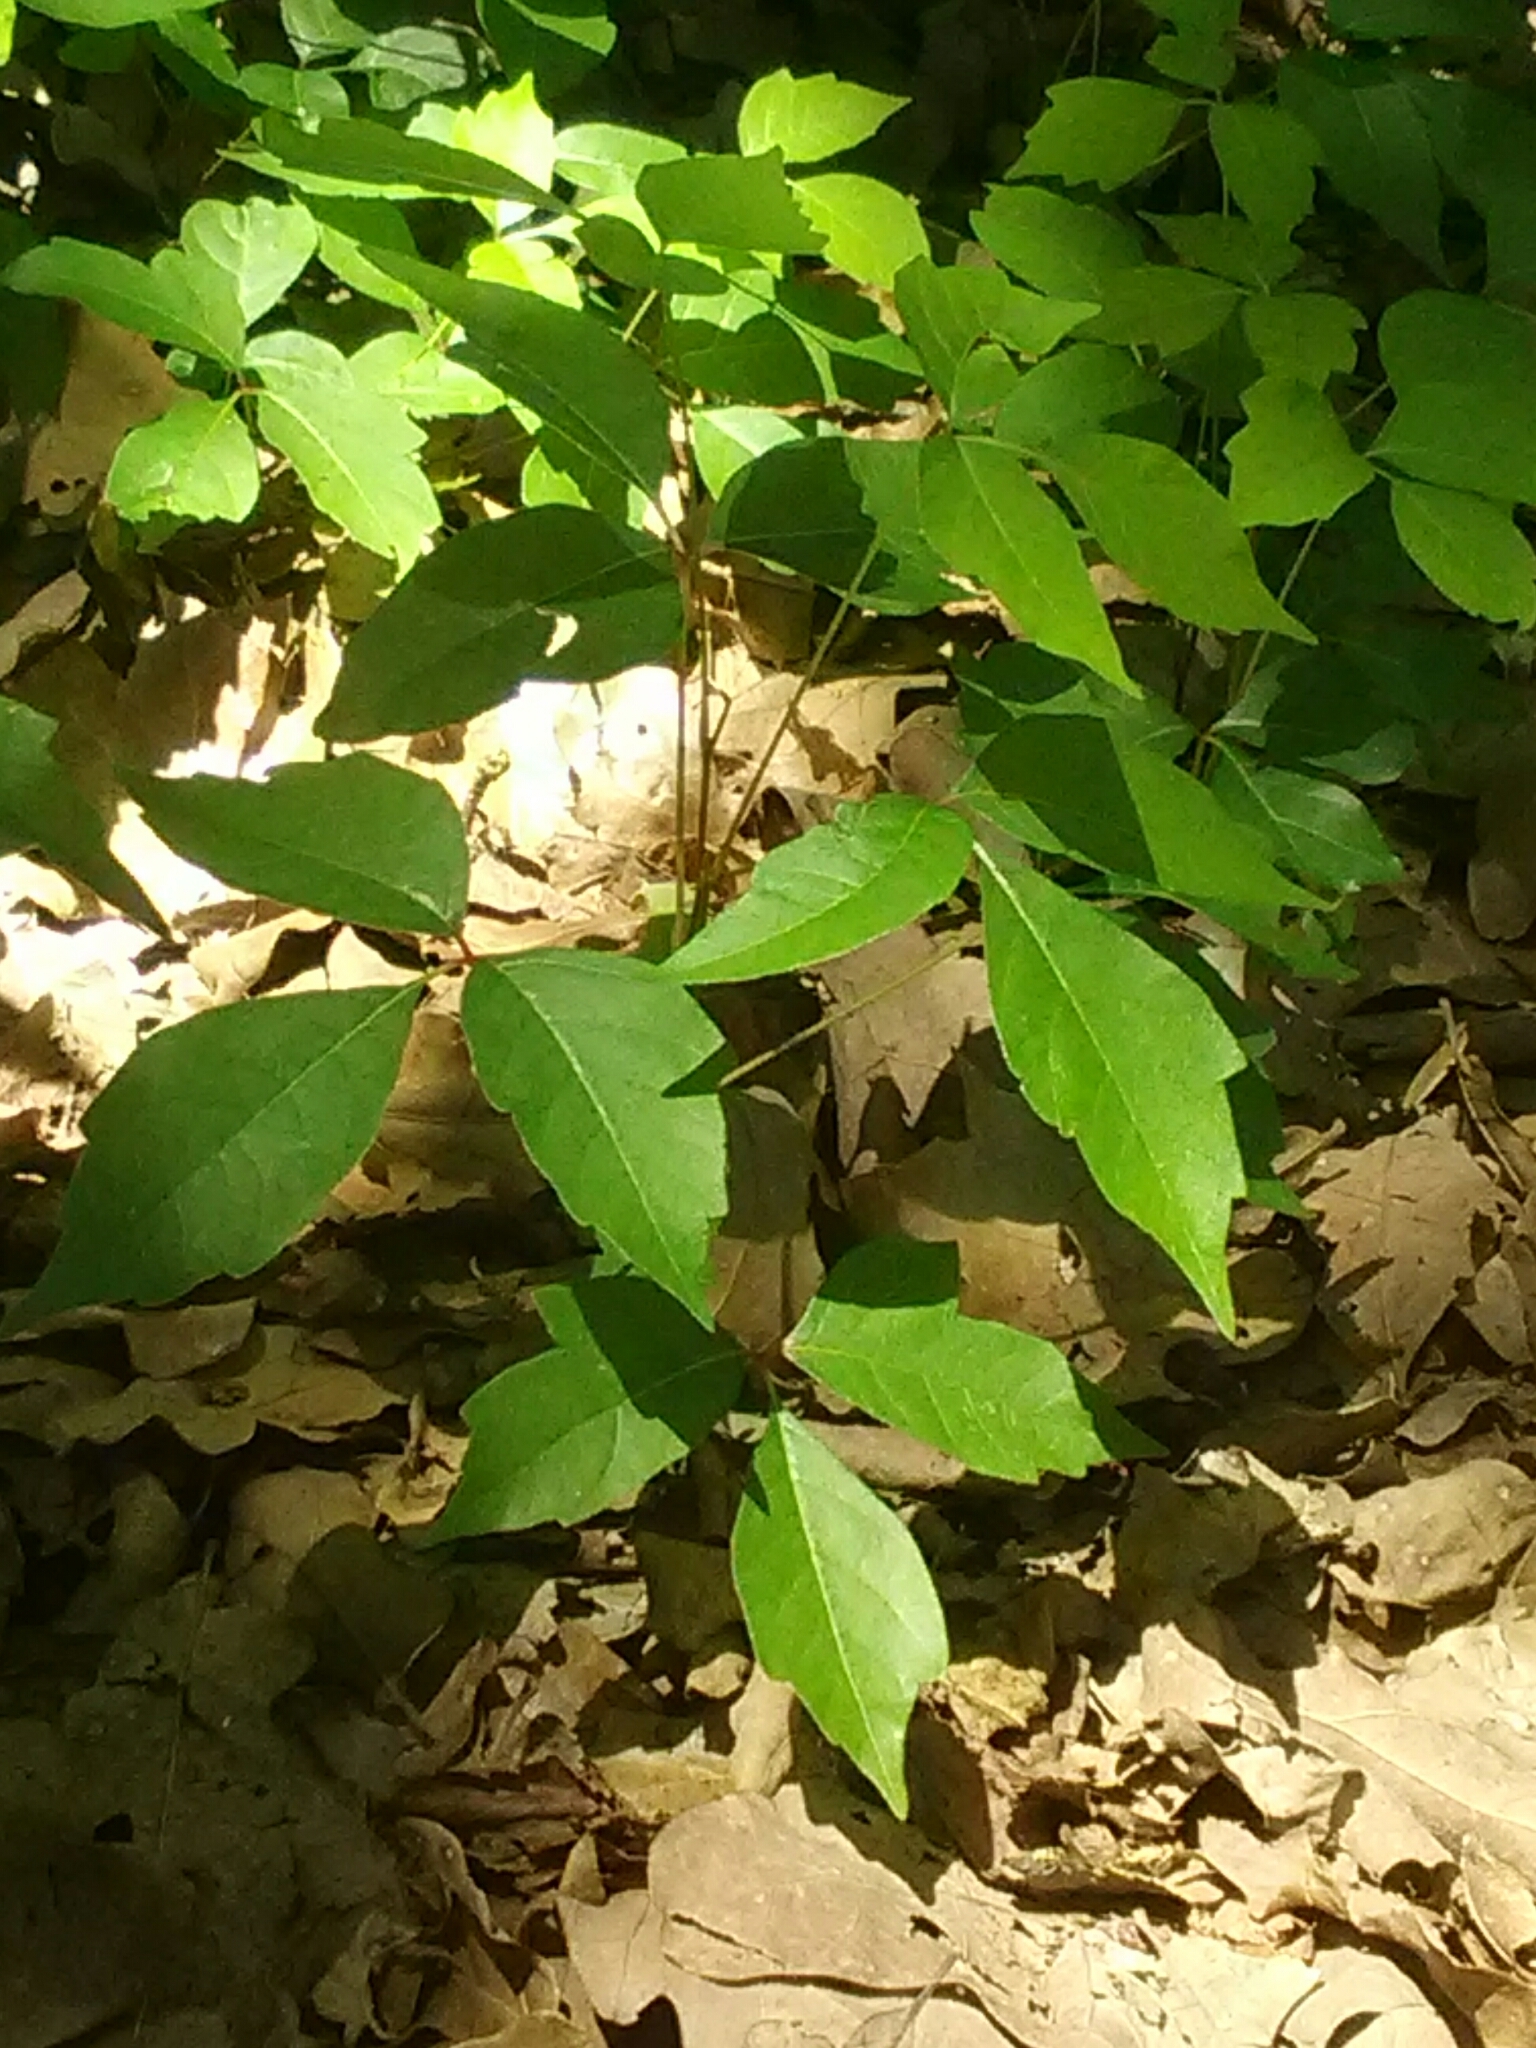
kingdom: Plantae
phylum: Tracheophyta
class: Magnoliopsida
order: Sapindales
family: Anacardiaceae
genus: Toxicodendron
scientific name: Toxicodendron radicans
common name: Poison ivy
